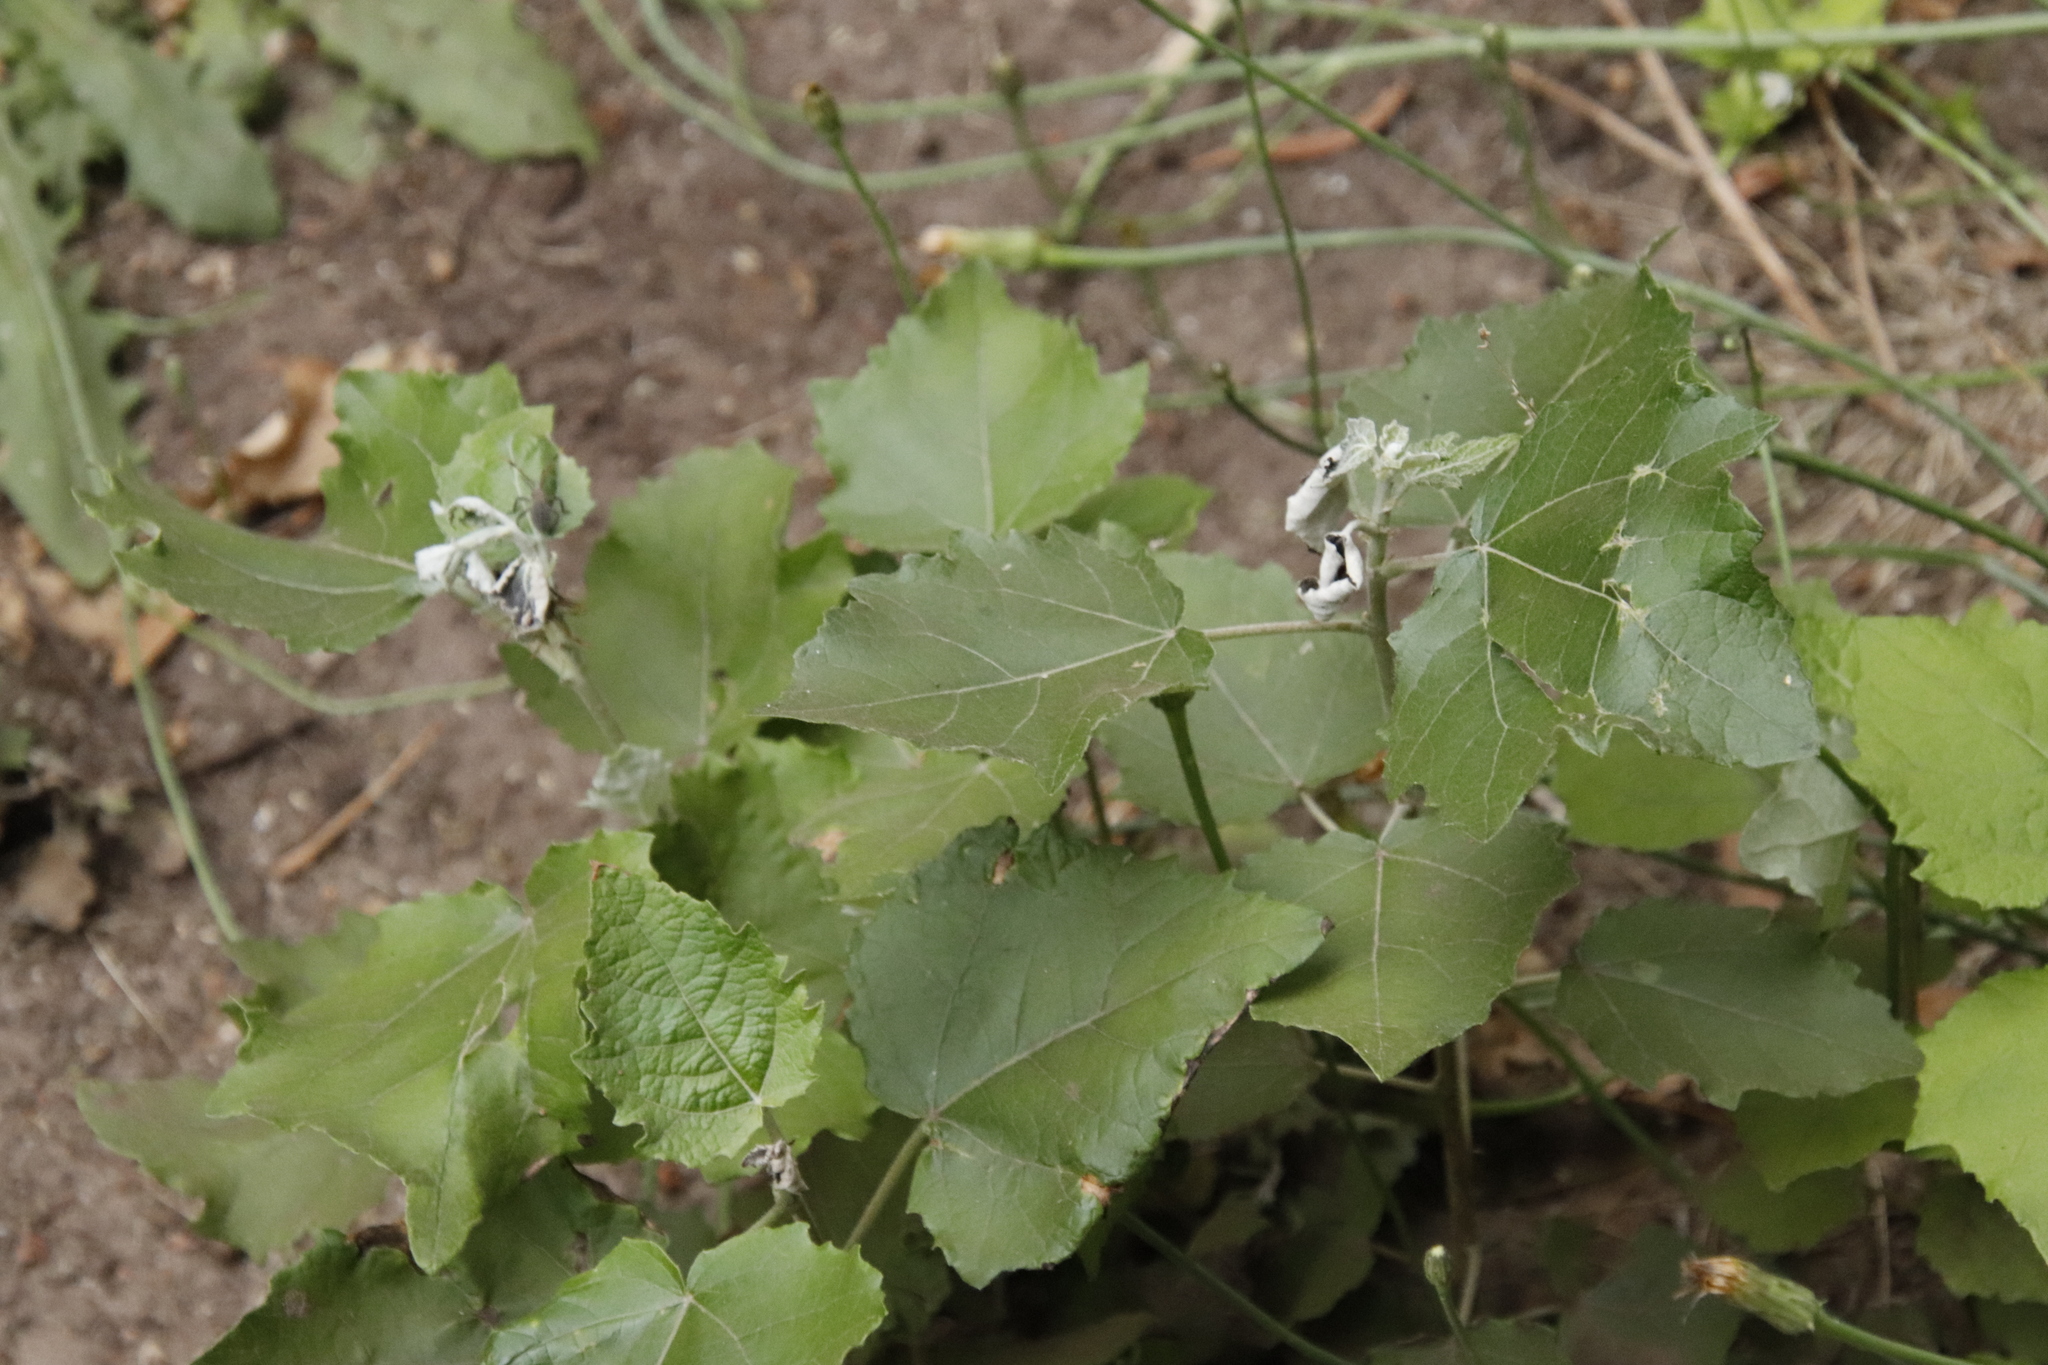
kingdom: Plantae
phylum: Tracheophyta
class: Magnoliopsida
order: Malpighiales
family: Salicaceae
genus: Populus
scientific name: Populus canescens
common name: Gray poplar
